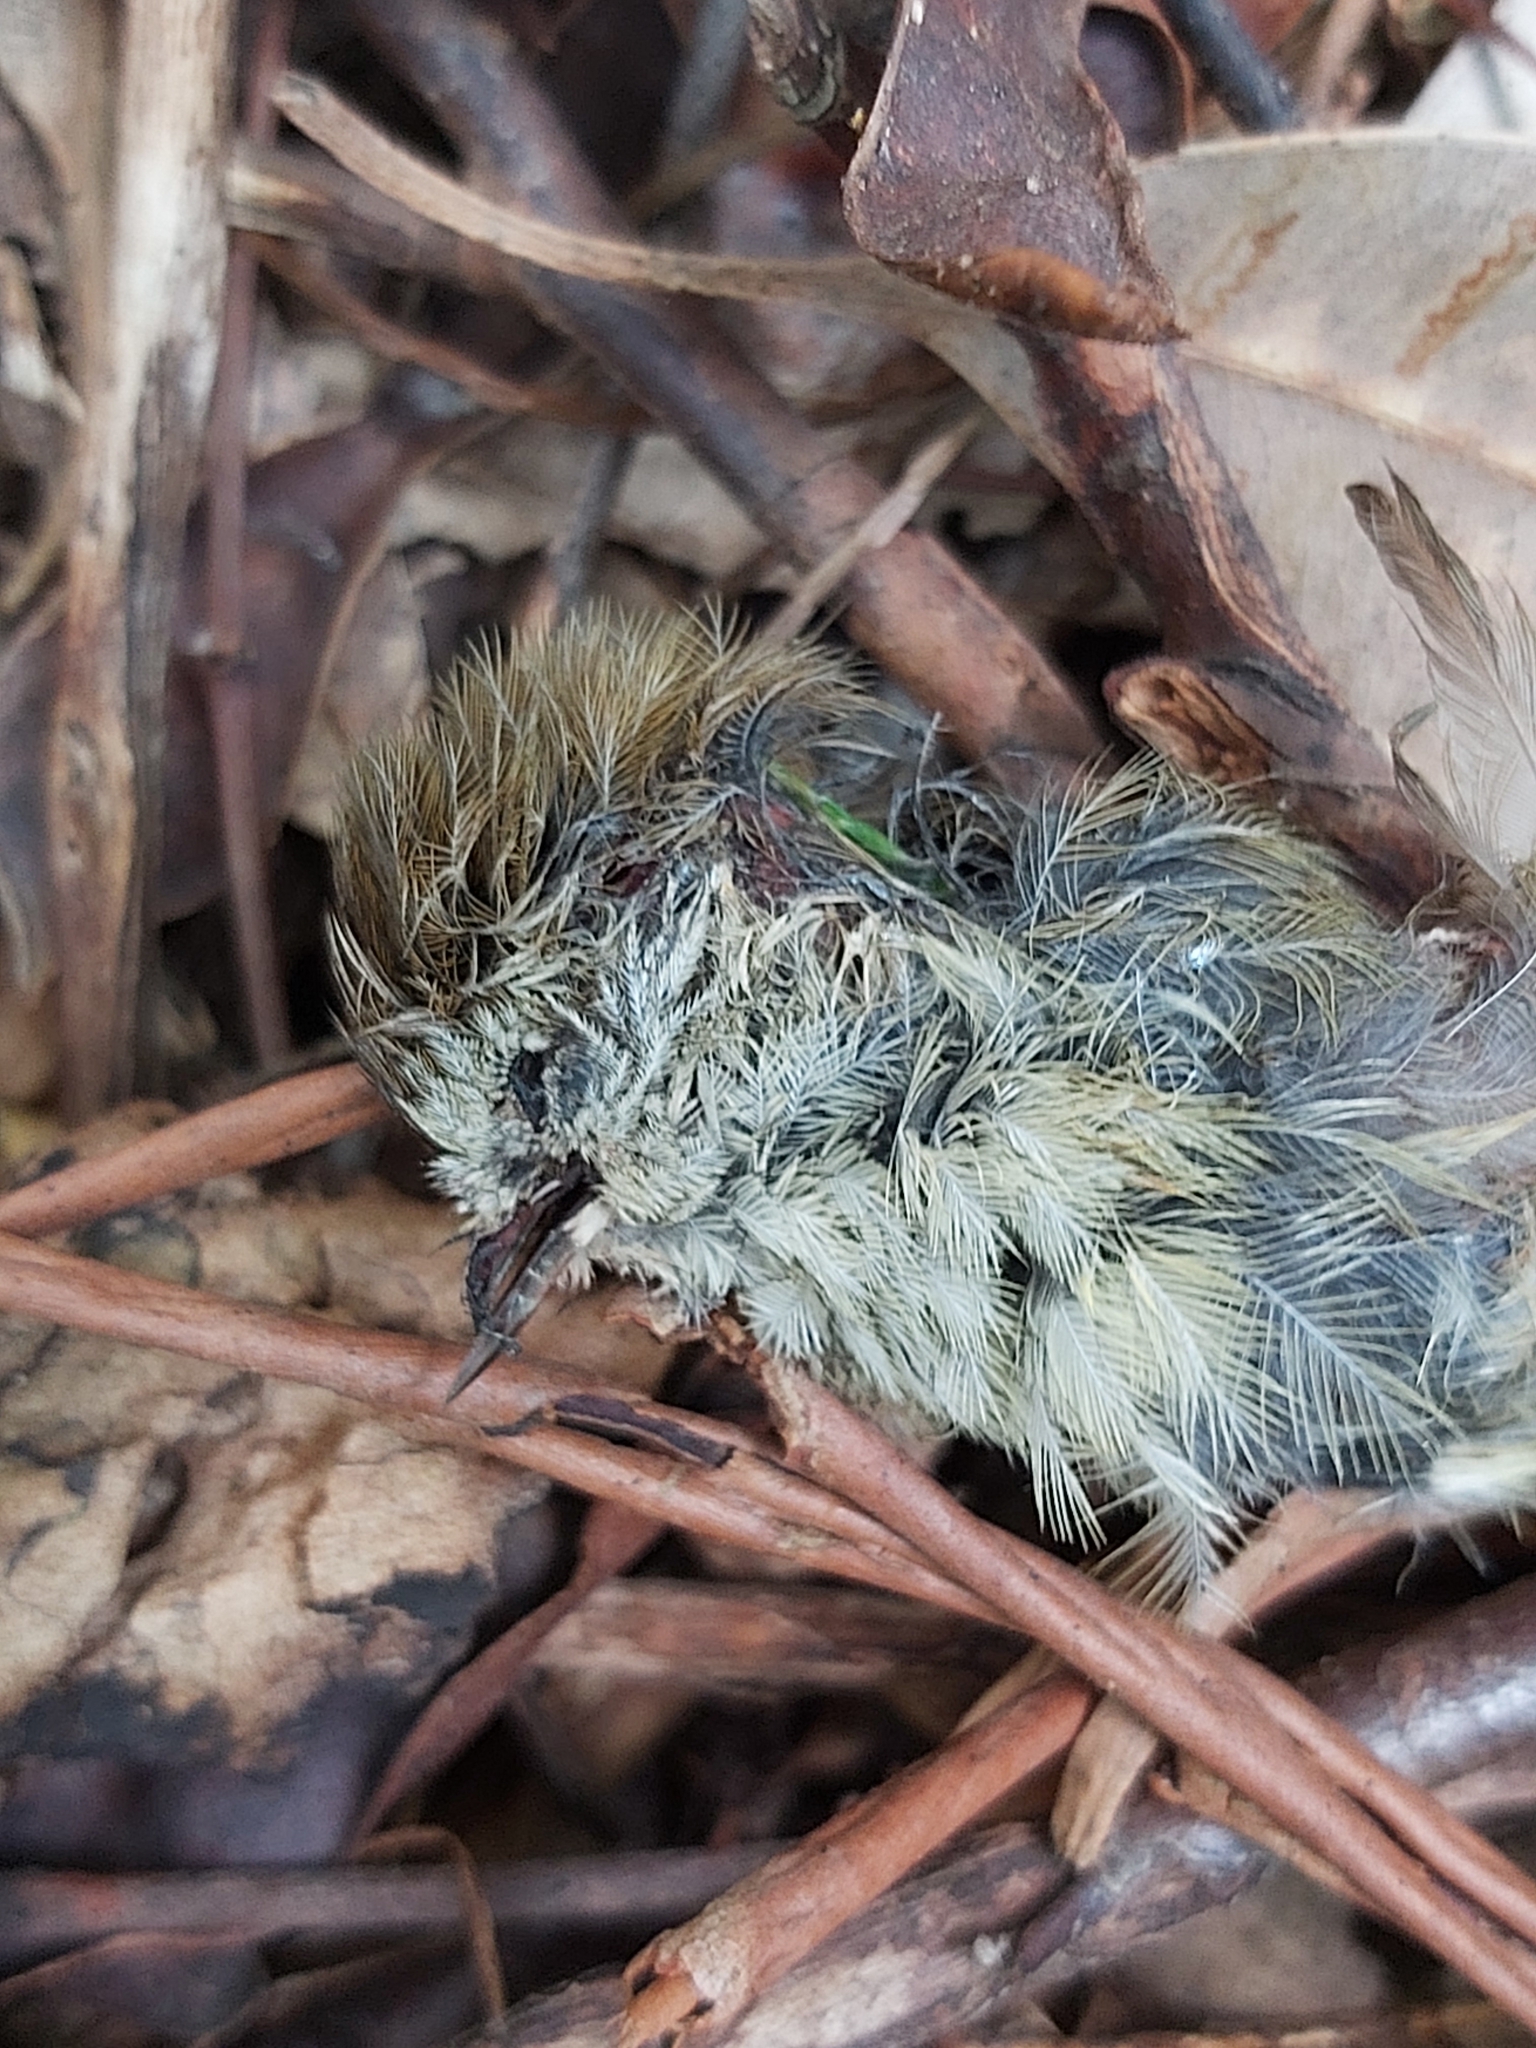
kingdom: Animalia
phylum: Chordata
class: Aves
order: Passeriformes
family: Acanthizidae
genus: Acanthiza
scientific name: Acanthiza lineata
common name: Striated thornbill
